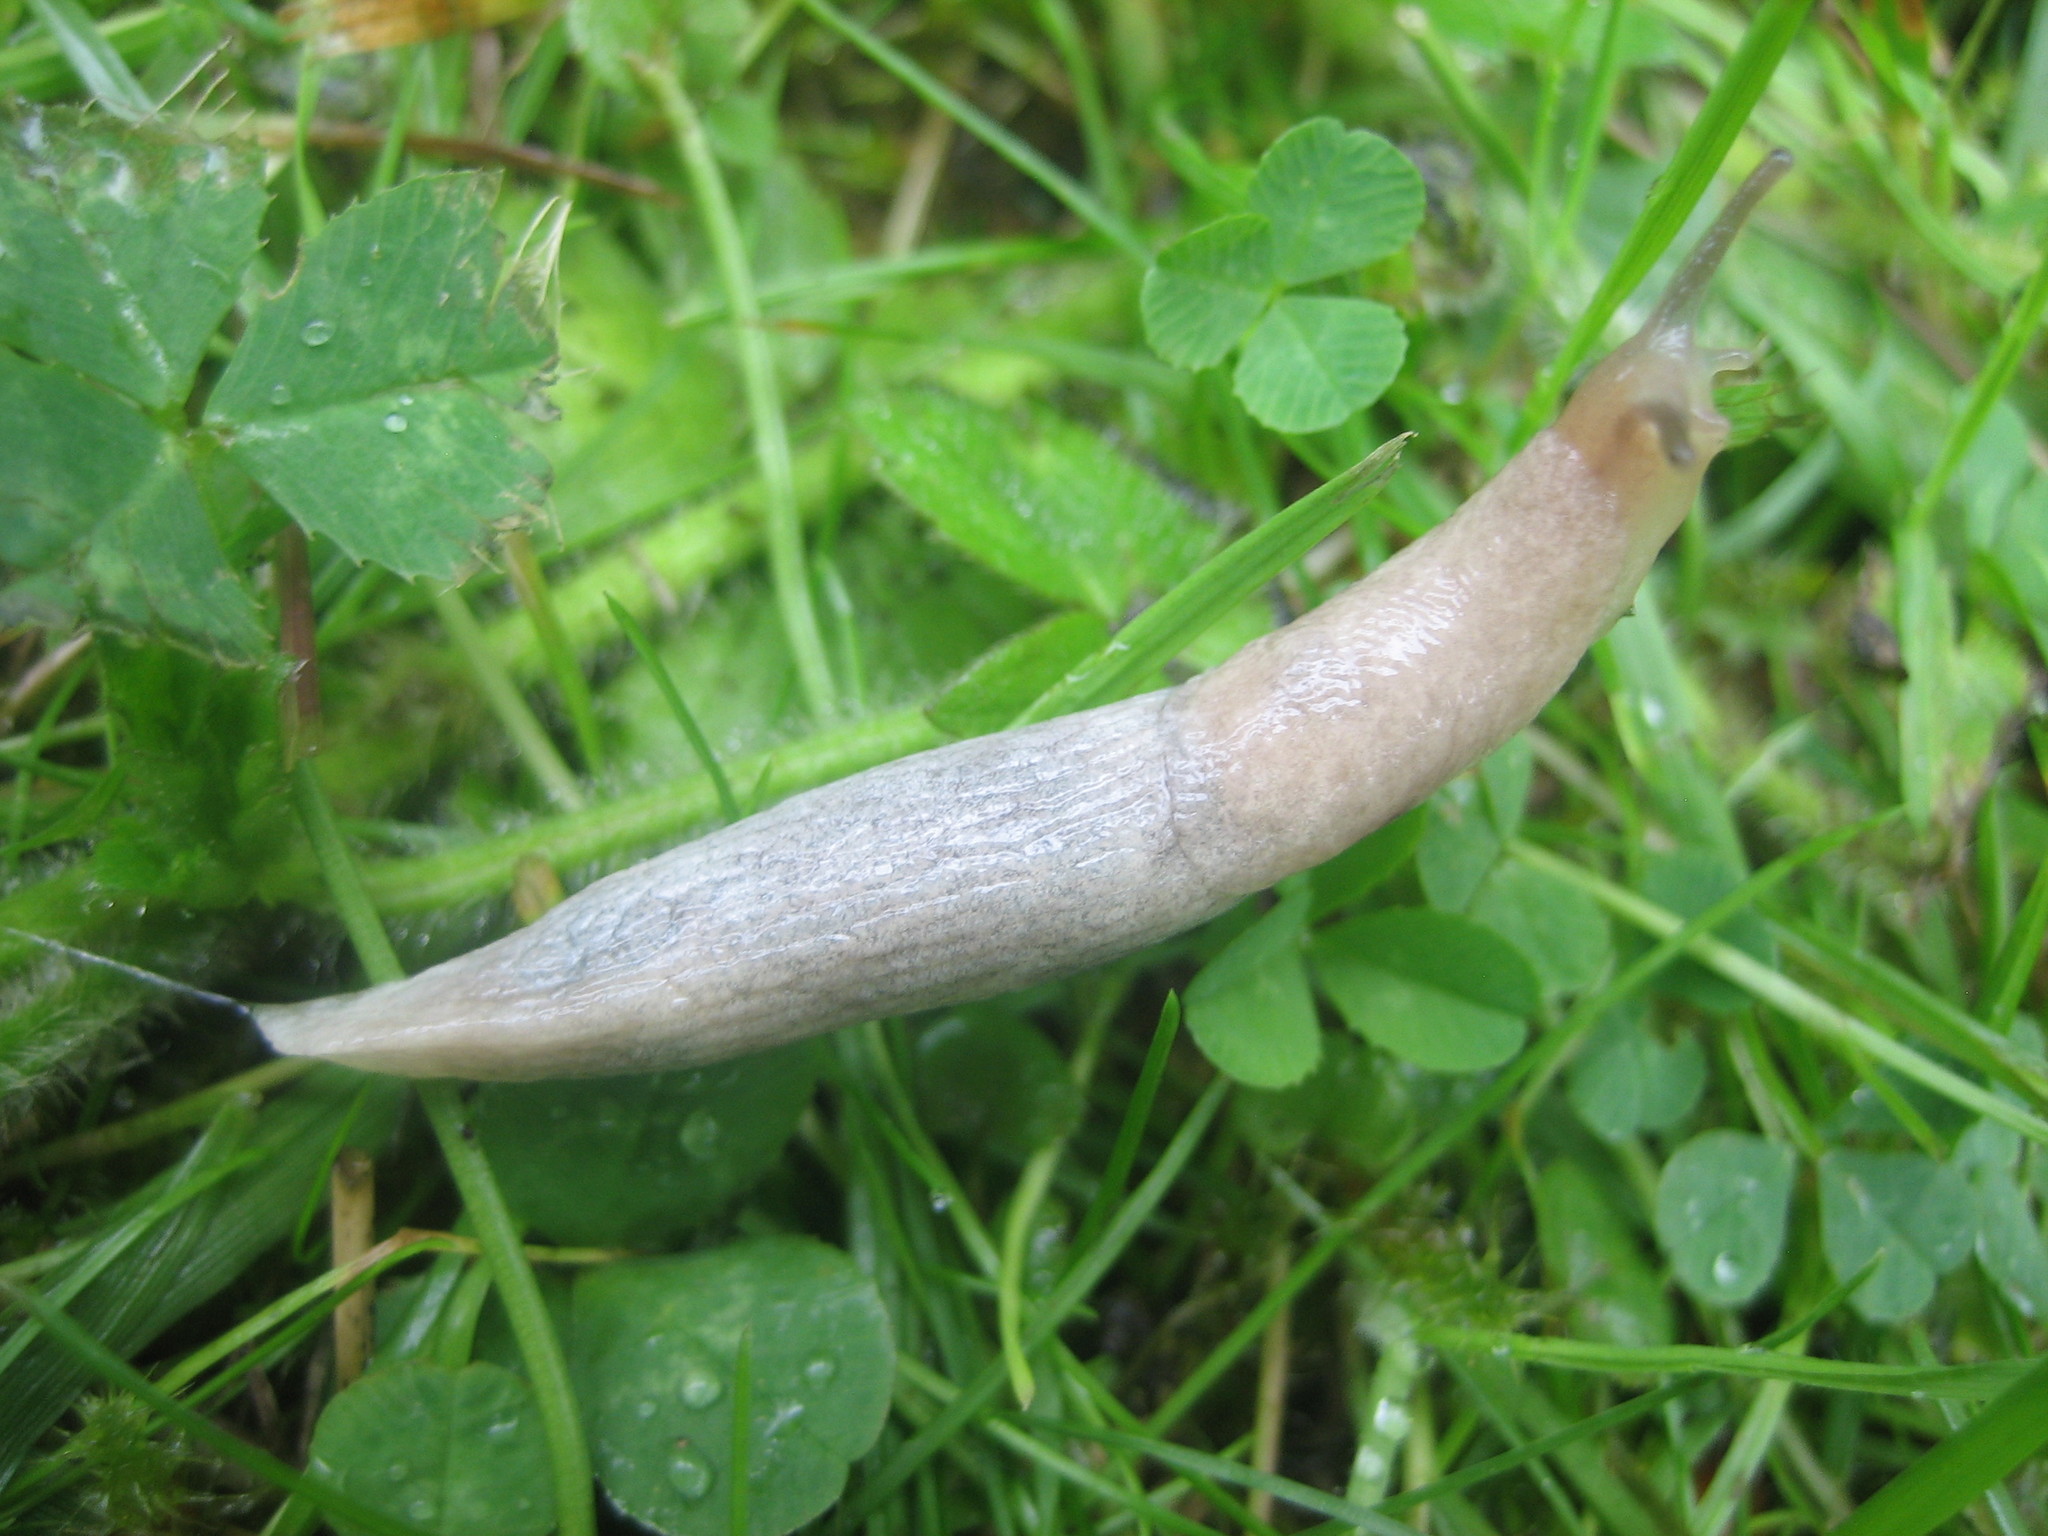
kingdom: Animalia
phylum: Mollusca
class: Gastropoda
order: Stylommatophora
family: Agriolimacidae
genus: Deroceras
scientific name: Deroceras reticulatum
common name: Gray field slug
